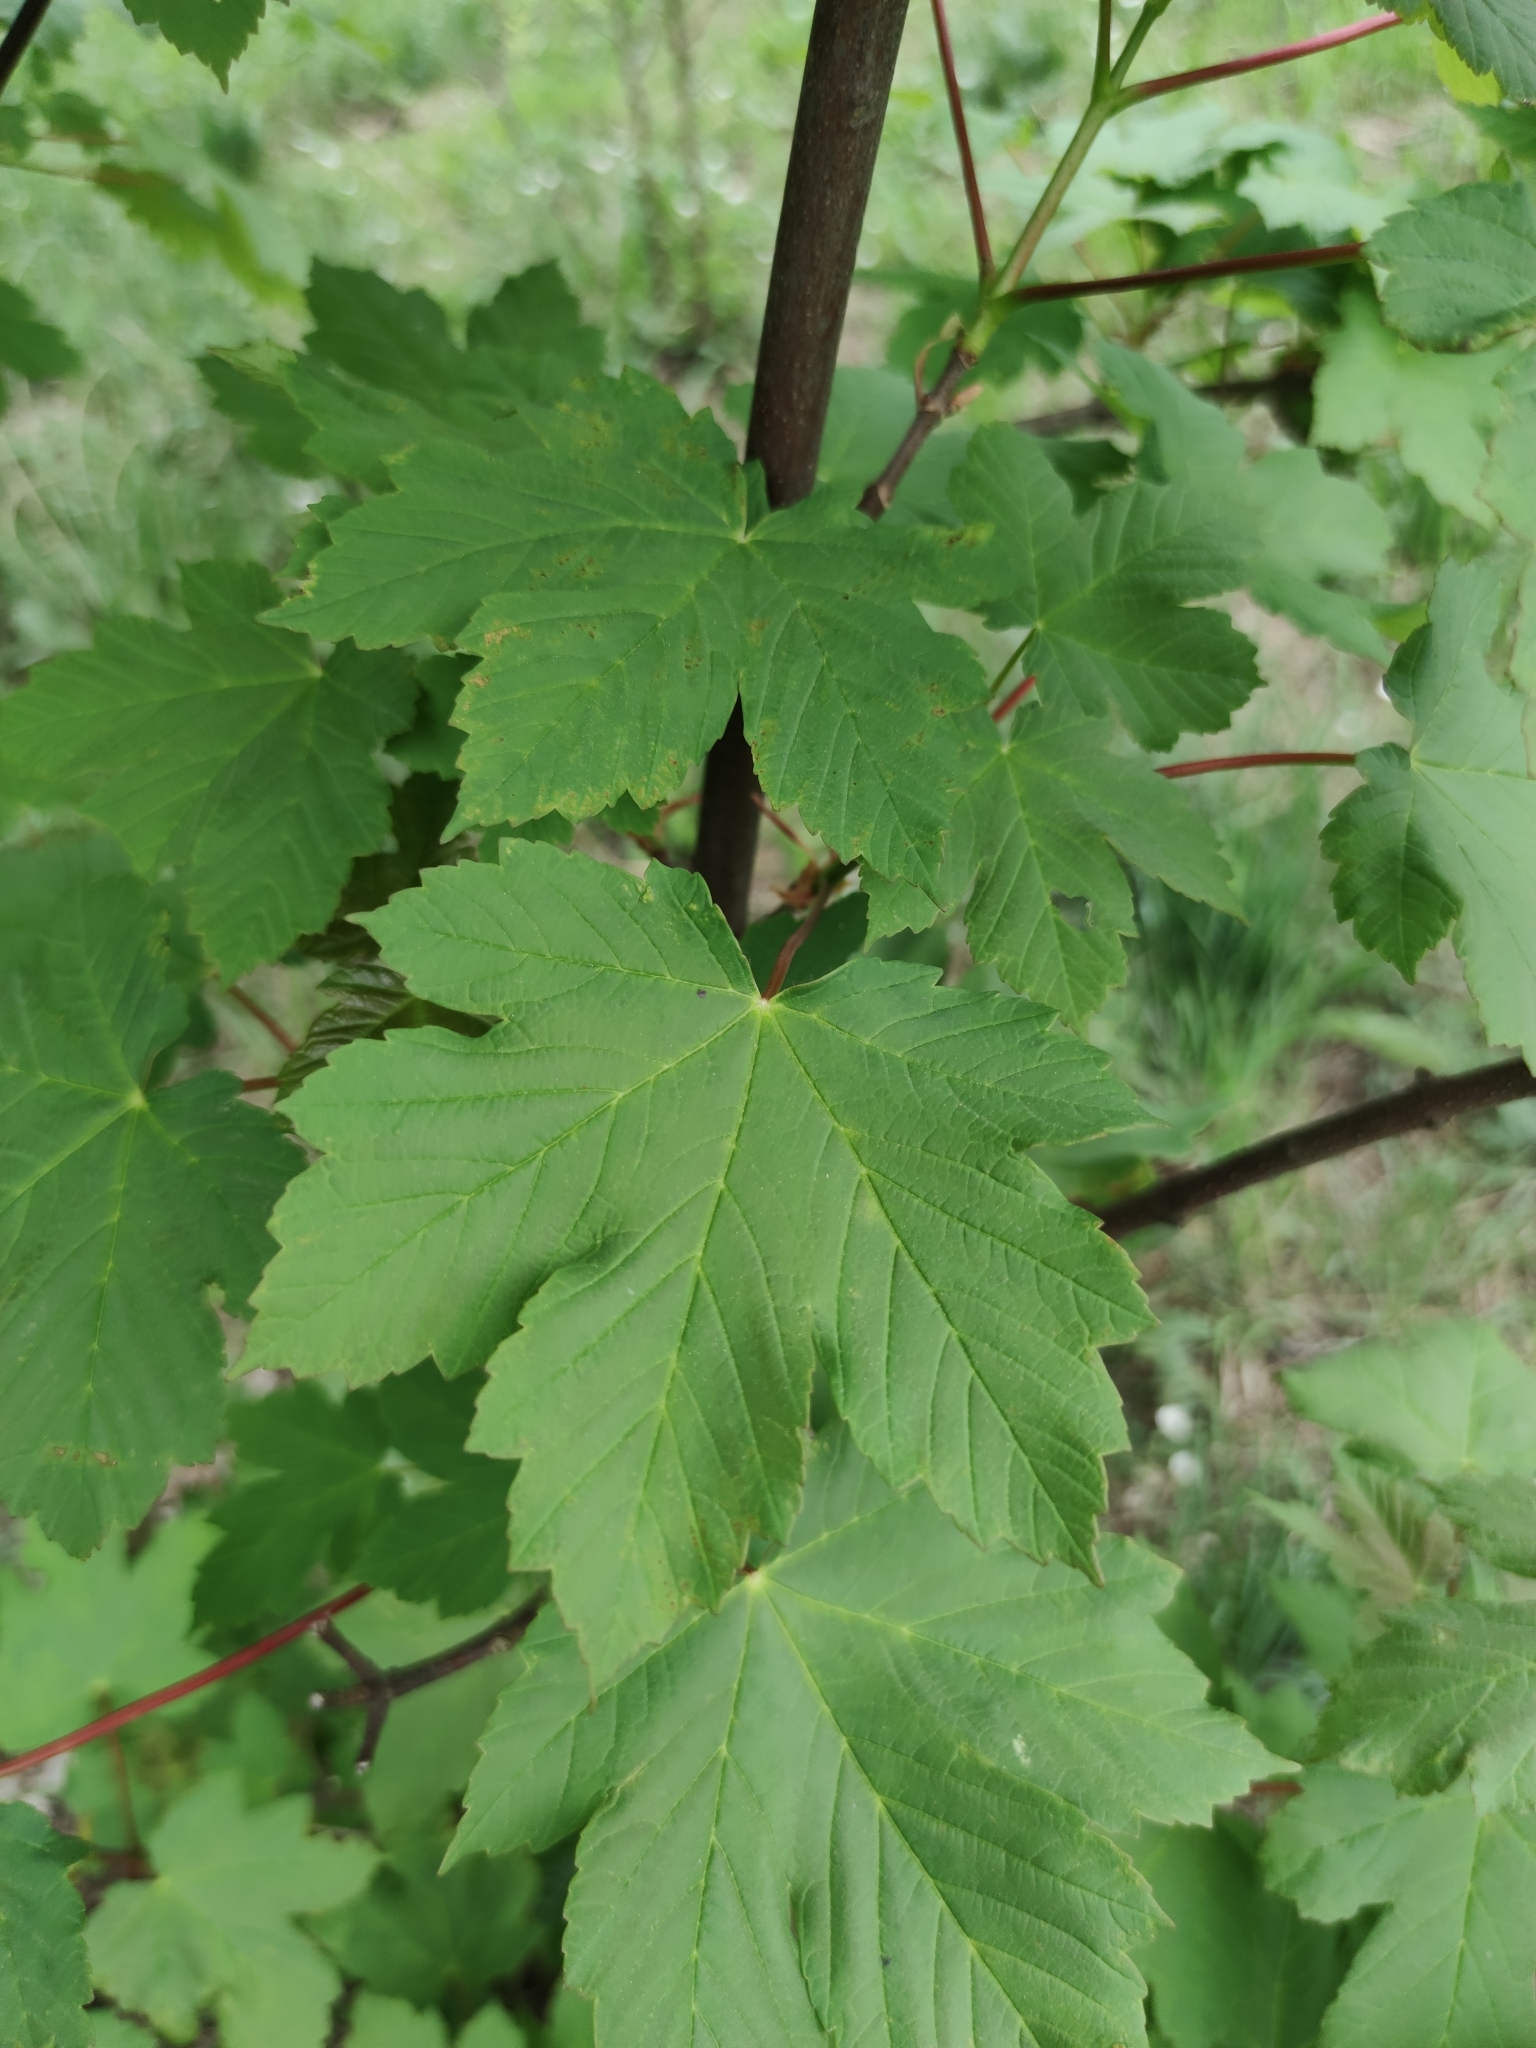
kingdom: Plantae
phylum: Tracheophyta
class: Magnoliopsida
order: Sapindales
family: Sapindaceae
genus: Acer
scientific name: Acer pseudoplatanus
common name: Sycamore
